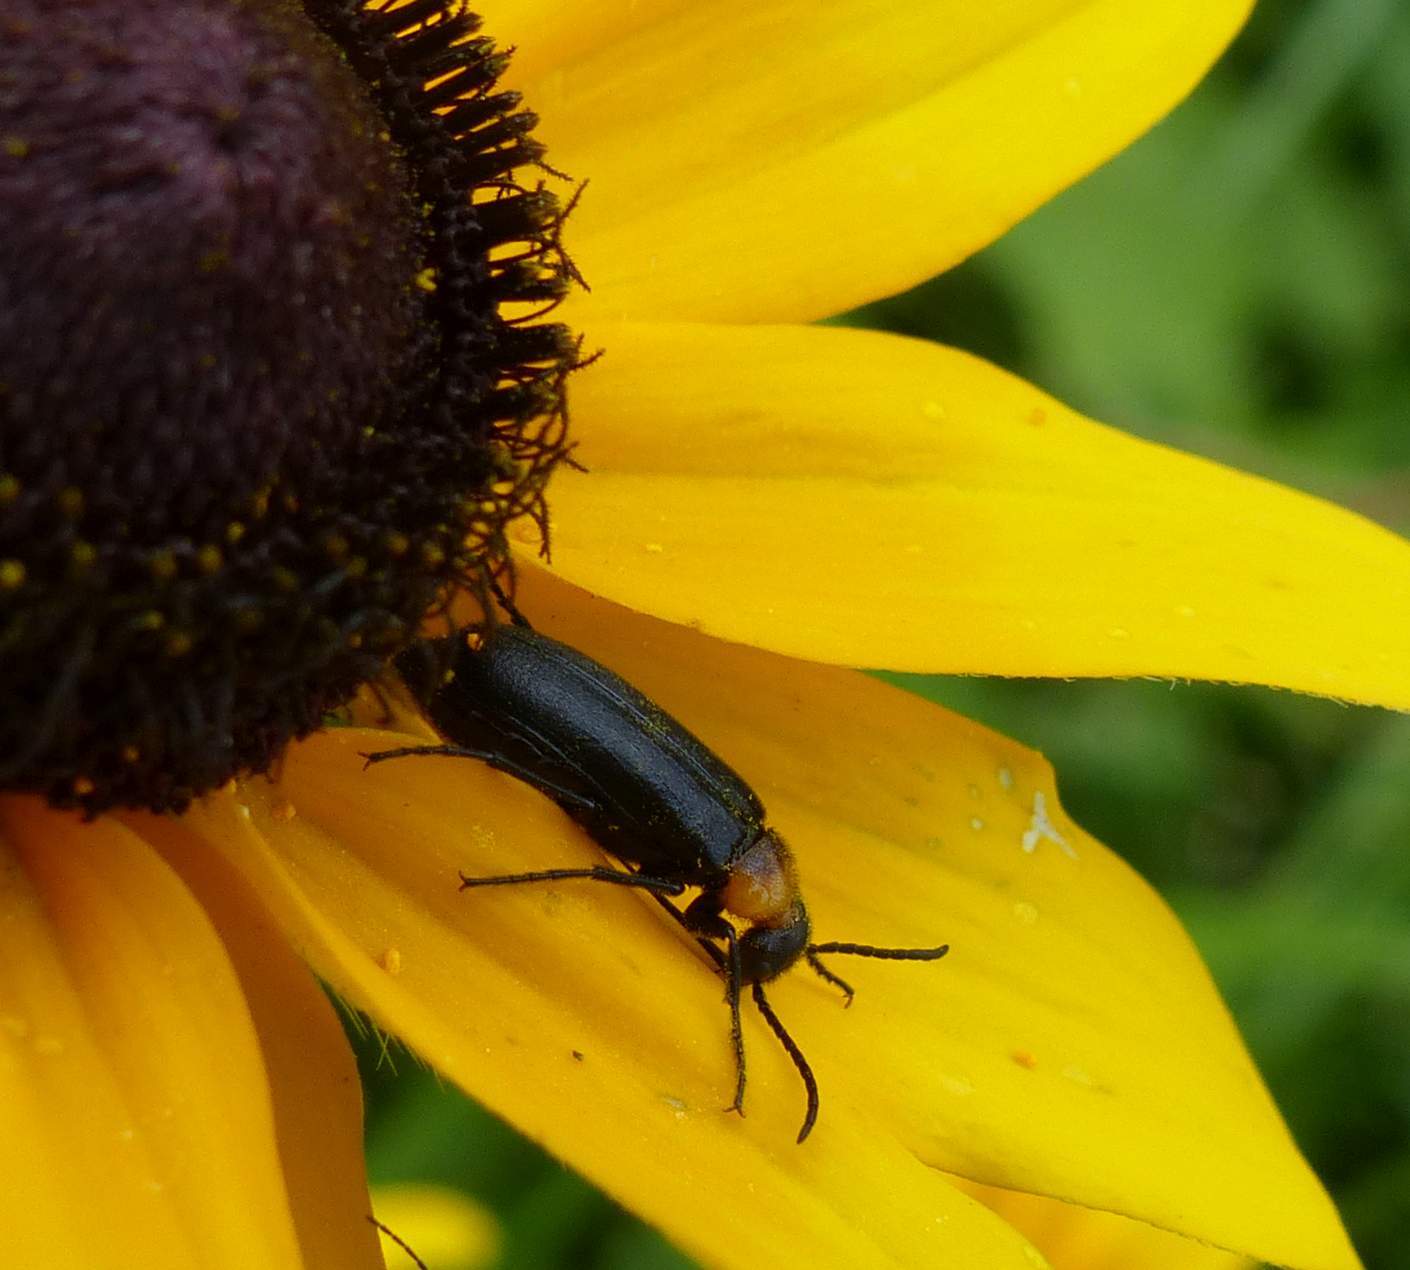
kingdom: Animalia
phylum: Arthropoda
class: Insecta
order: Coleoptera
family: Meloidae
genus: Nemognatha
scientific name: Nemognatha nemorensis
